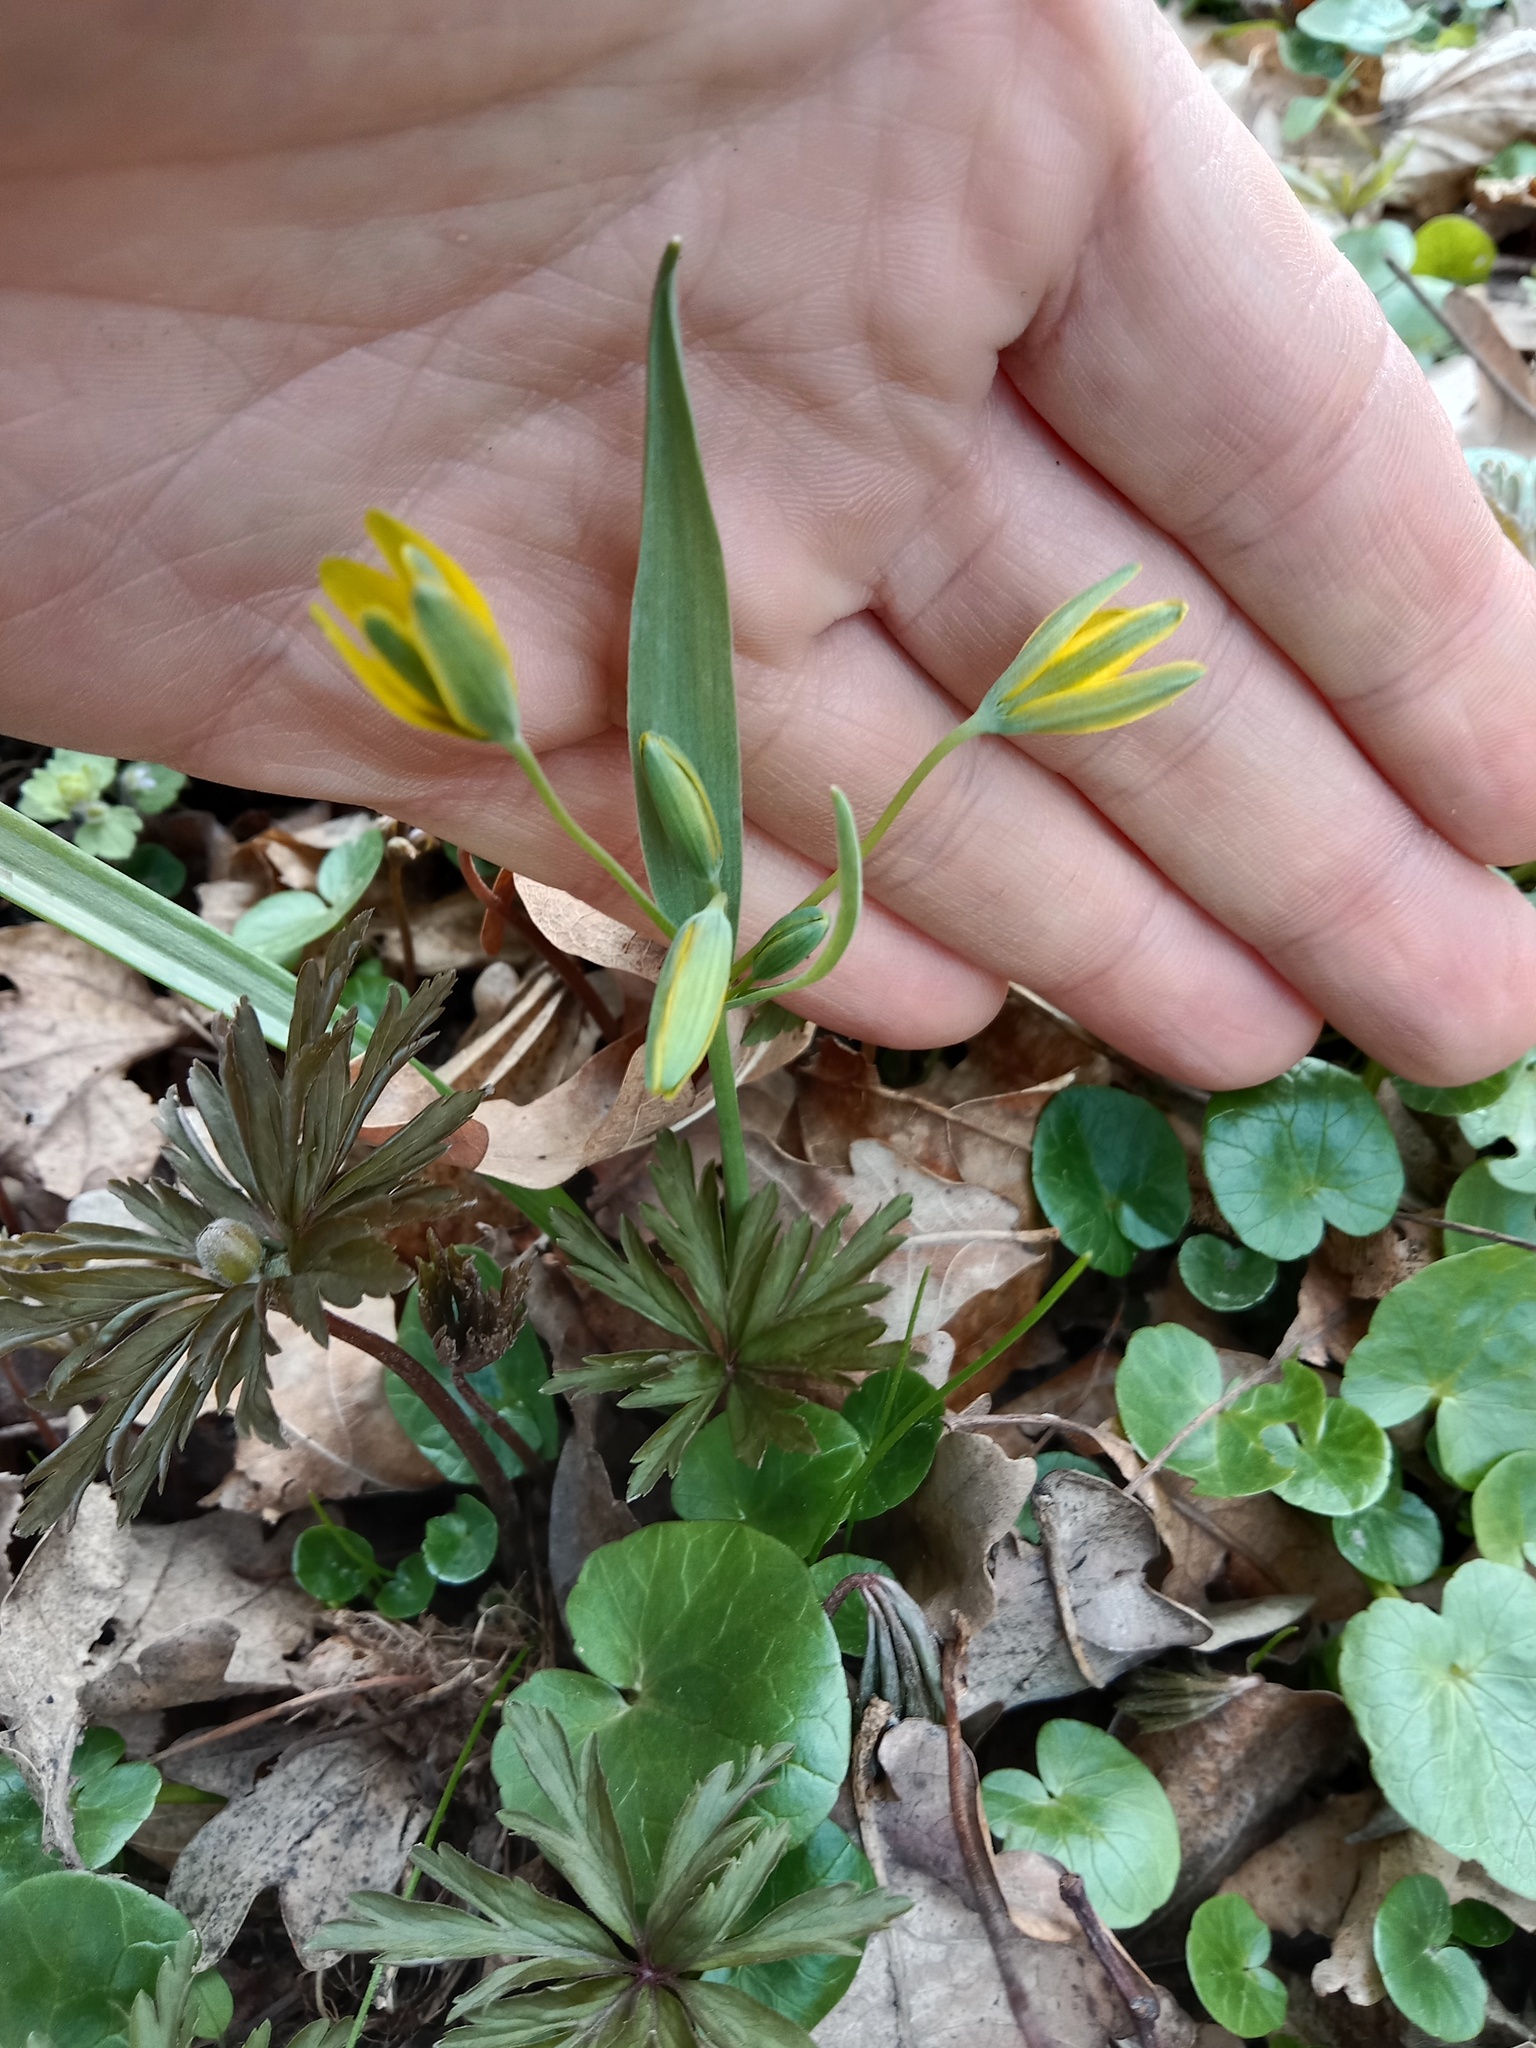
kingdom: Plantae
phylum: Tracheophyta
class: Liliopsida
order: Liliales
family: Liliaceae
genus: Gagea
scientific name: Gagea lutea
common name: Yellow star-of-bethlehem
